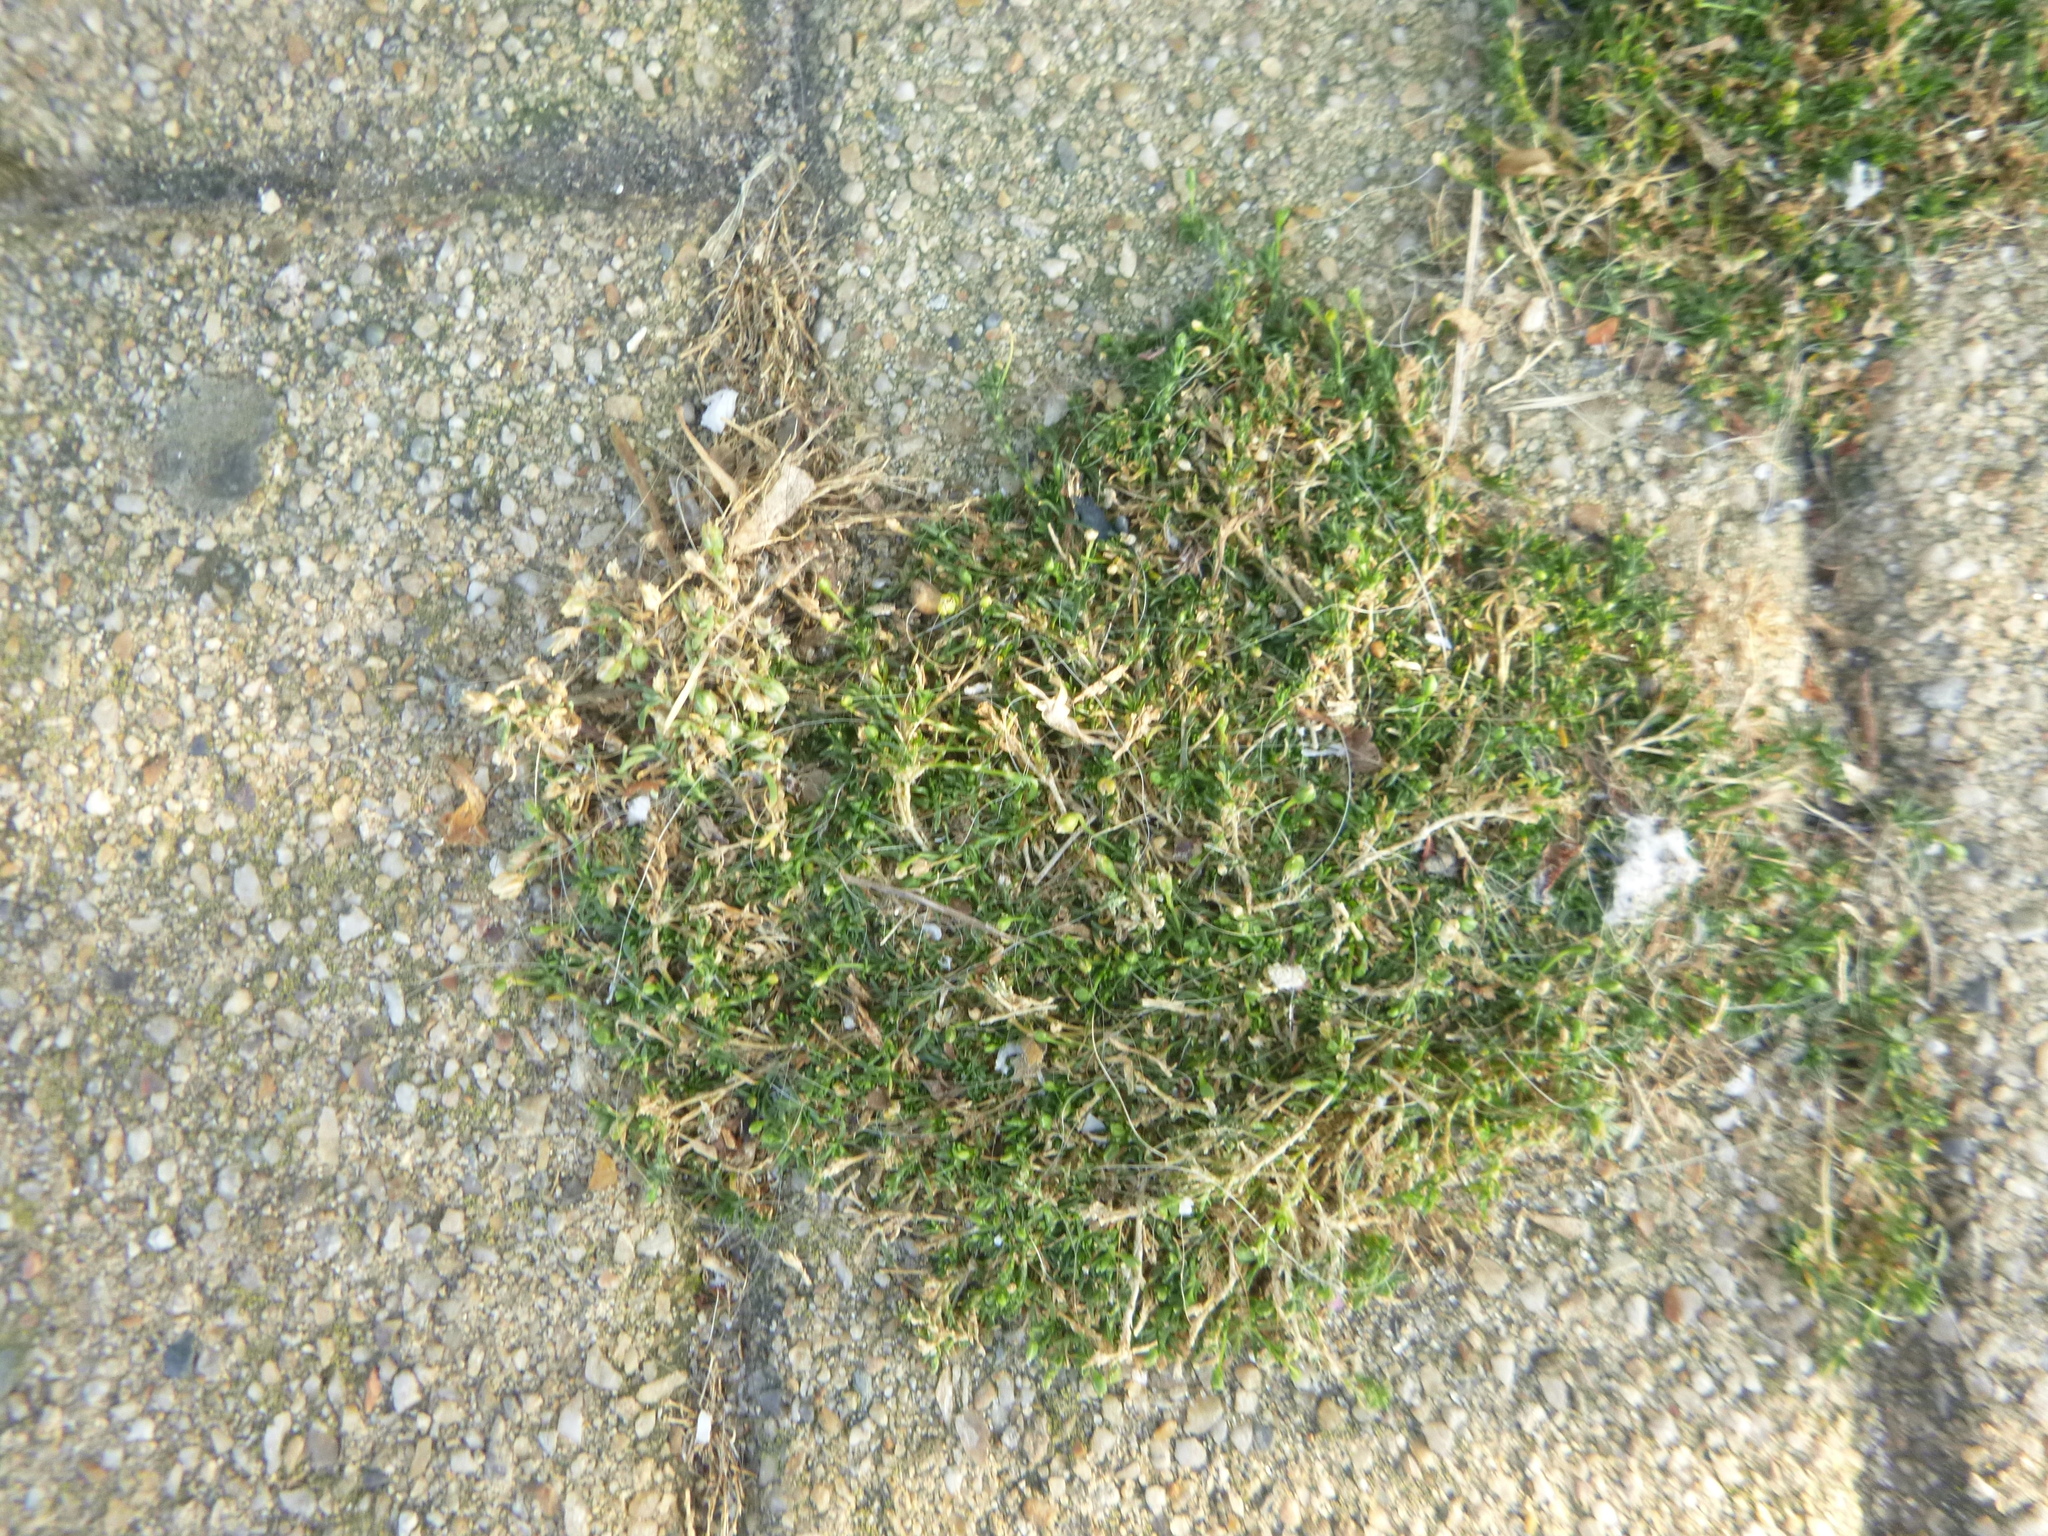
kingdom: Plantae
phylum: Tracheophyta
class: Magnoliopsida
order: Caryophyllales
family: Caryophyllaceae
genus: Sagina
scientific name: Sagina procumbens
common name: Procumbent pearlwort
